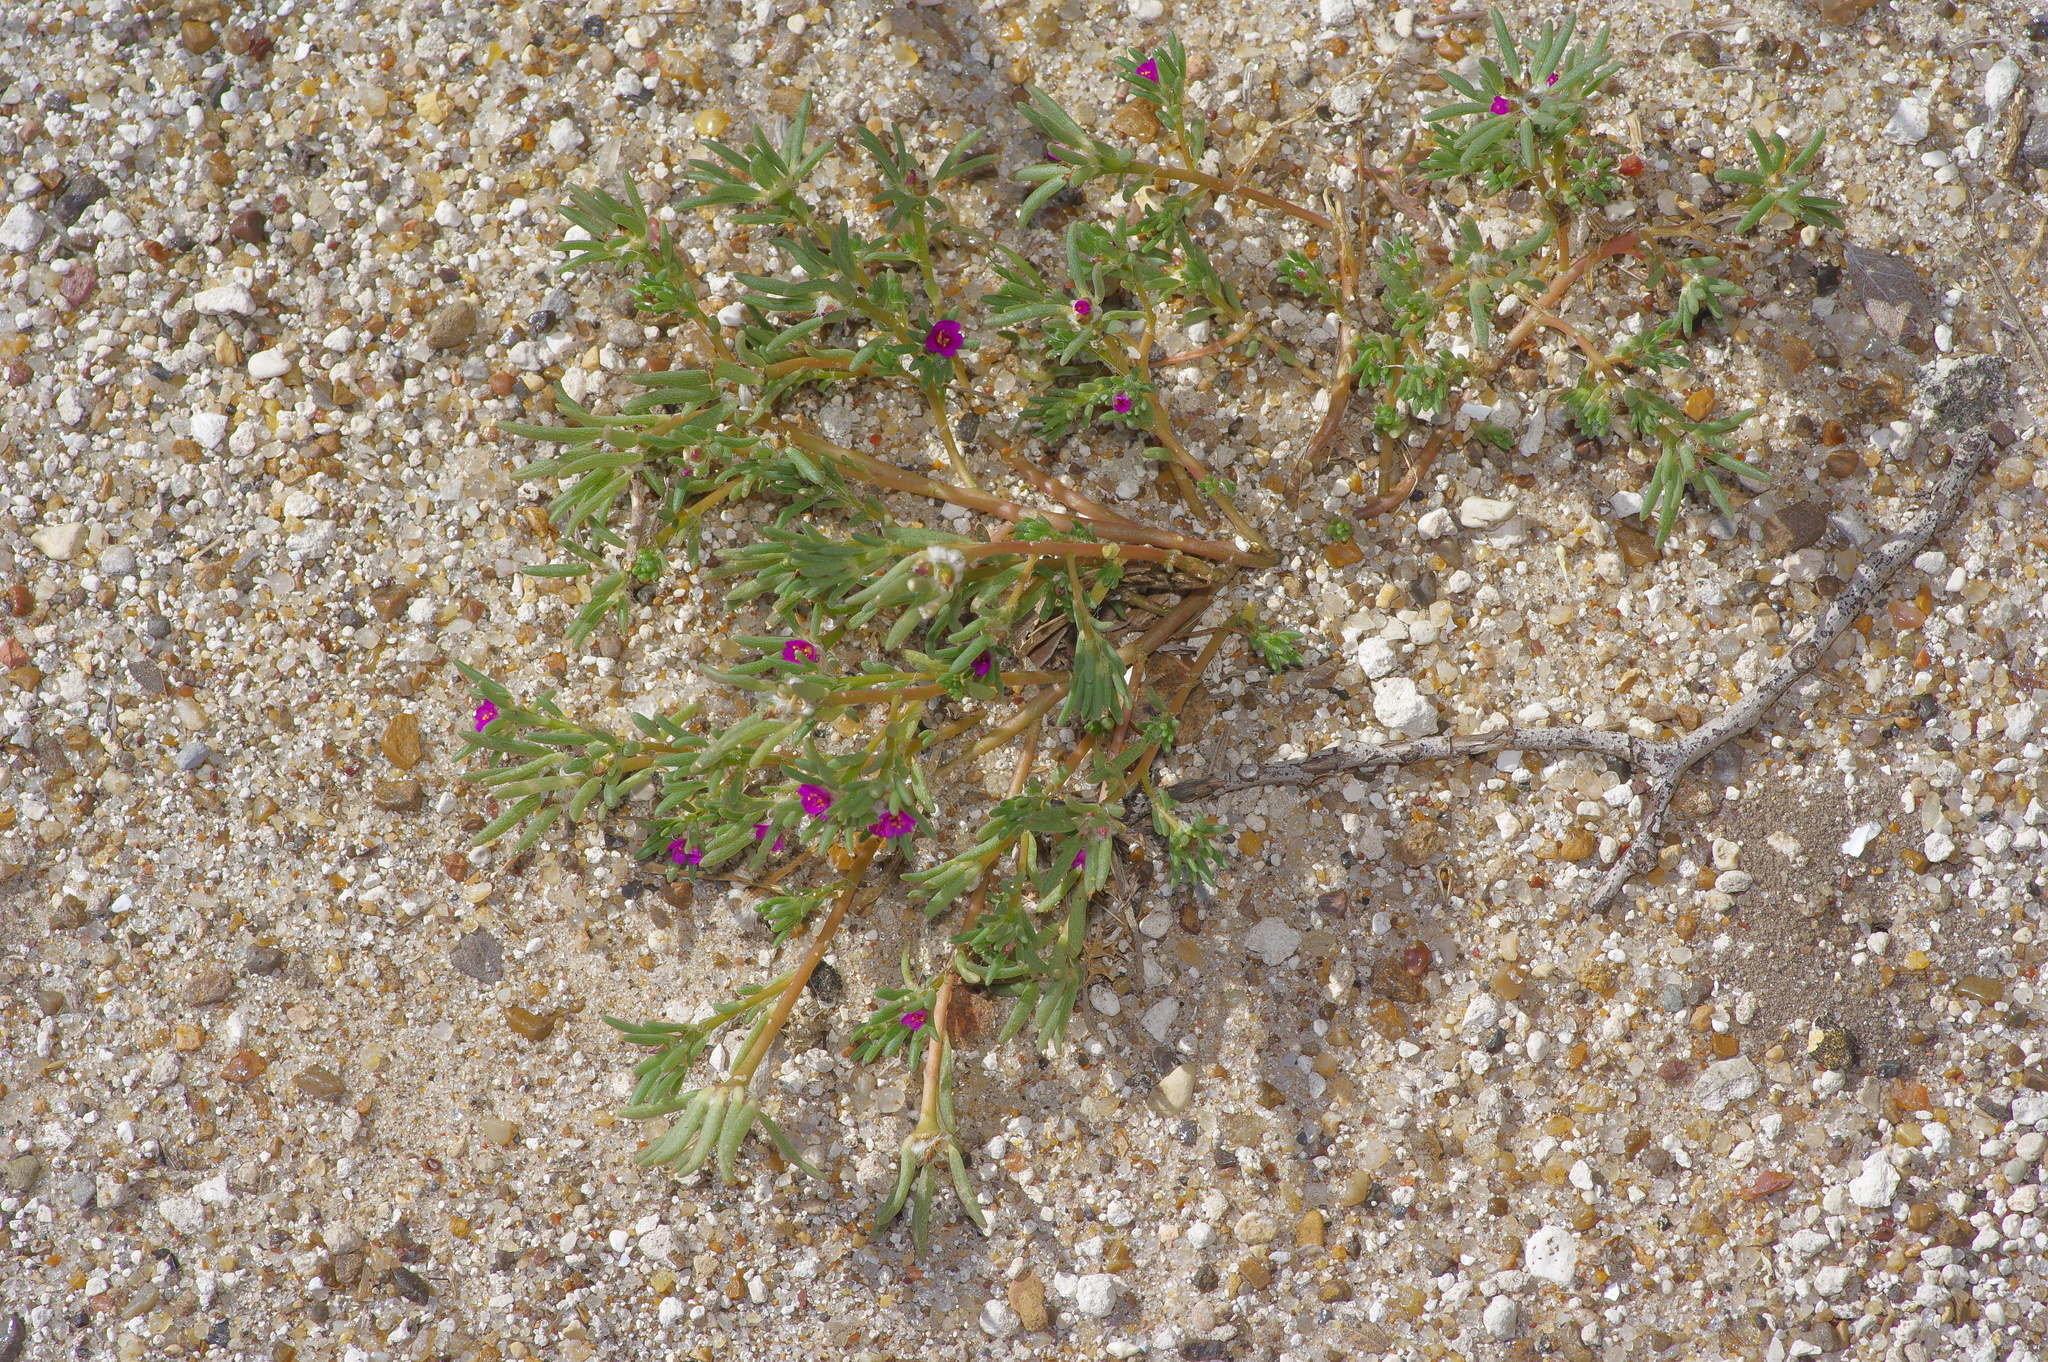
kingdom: Plantae
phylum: Tracheophyta
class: Magnoliopsida
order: Caryophyllales
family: Portulacaceae
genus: Portulaca
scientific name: Portulaca pilosa
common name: Kiss me quick
